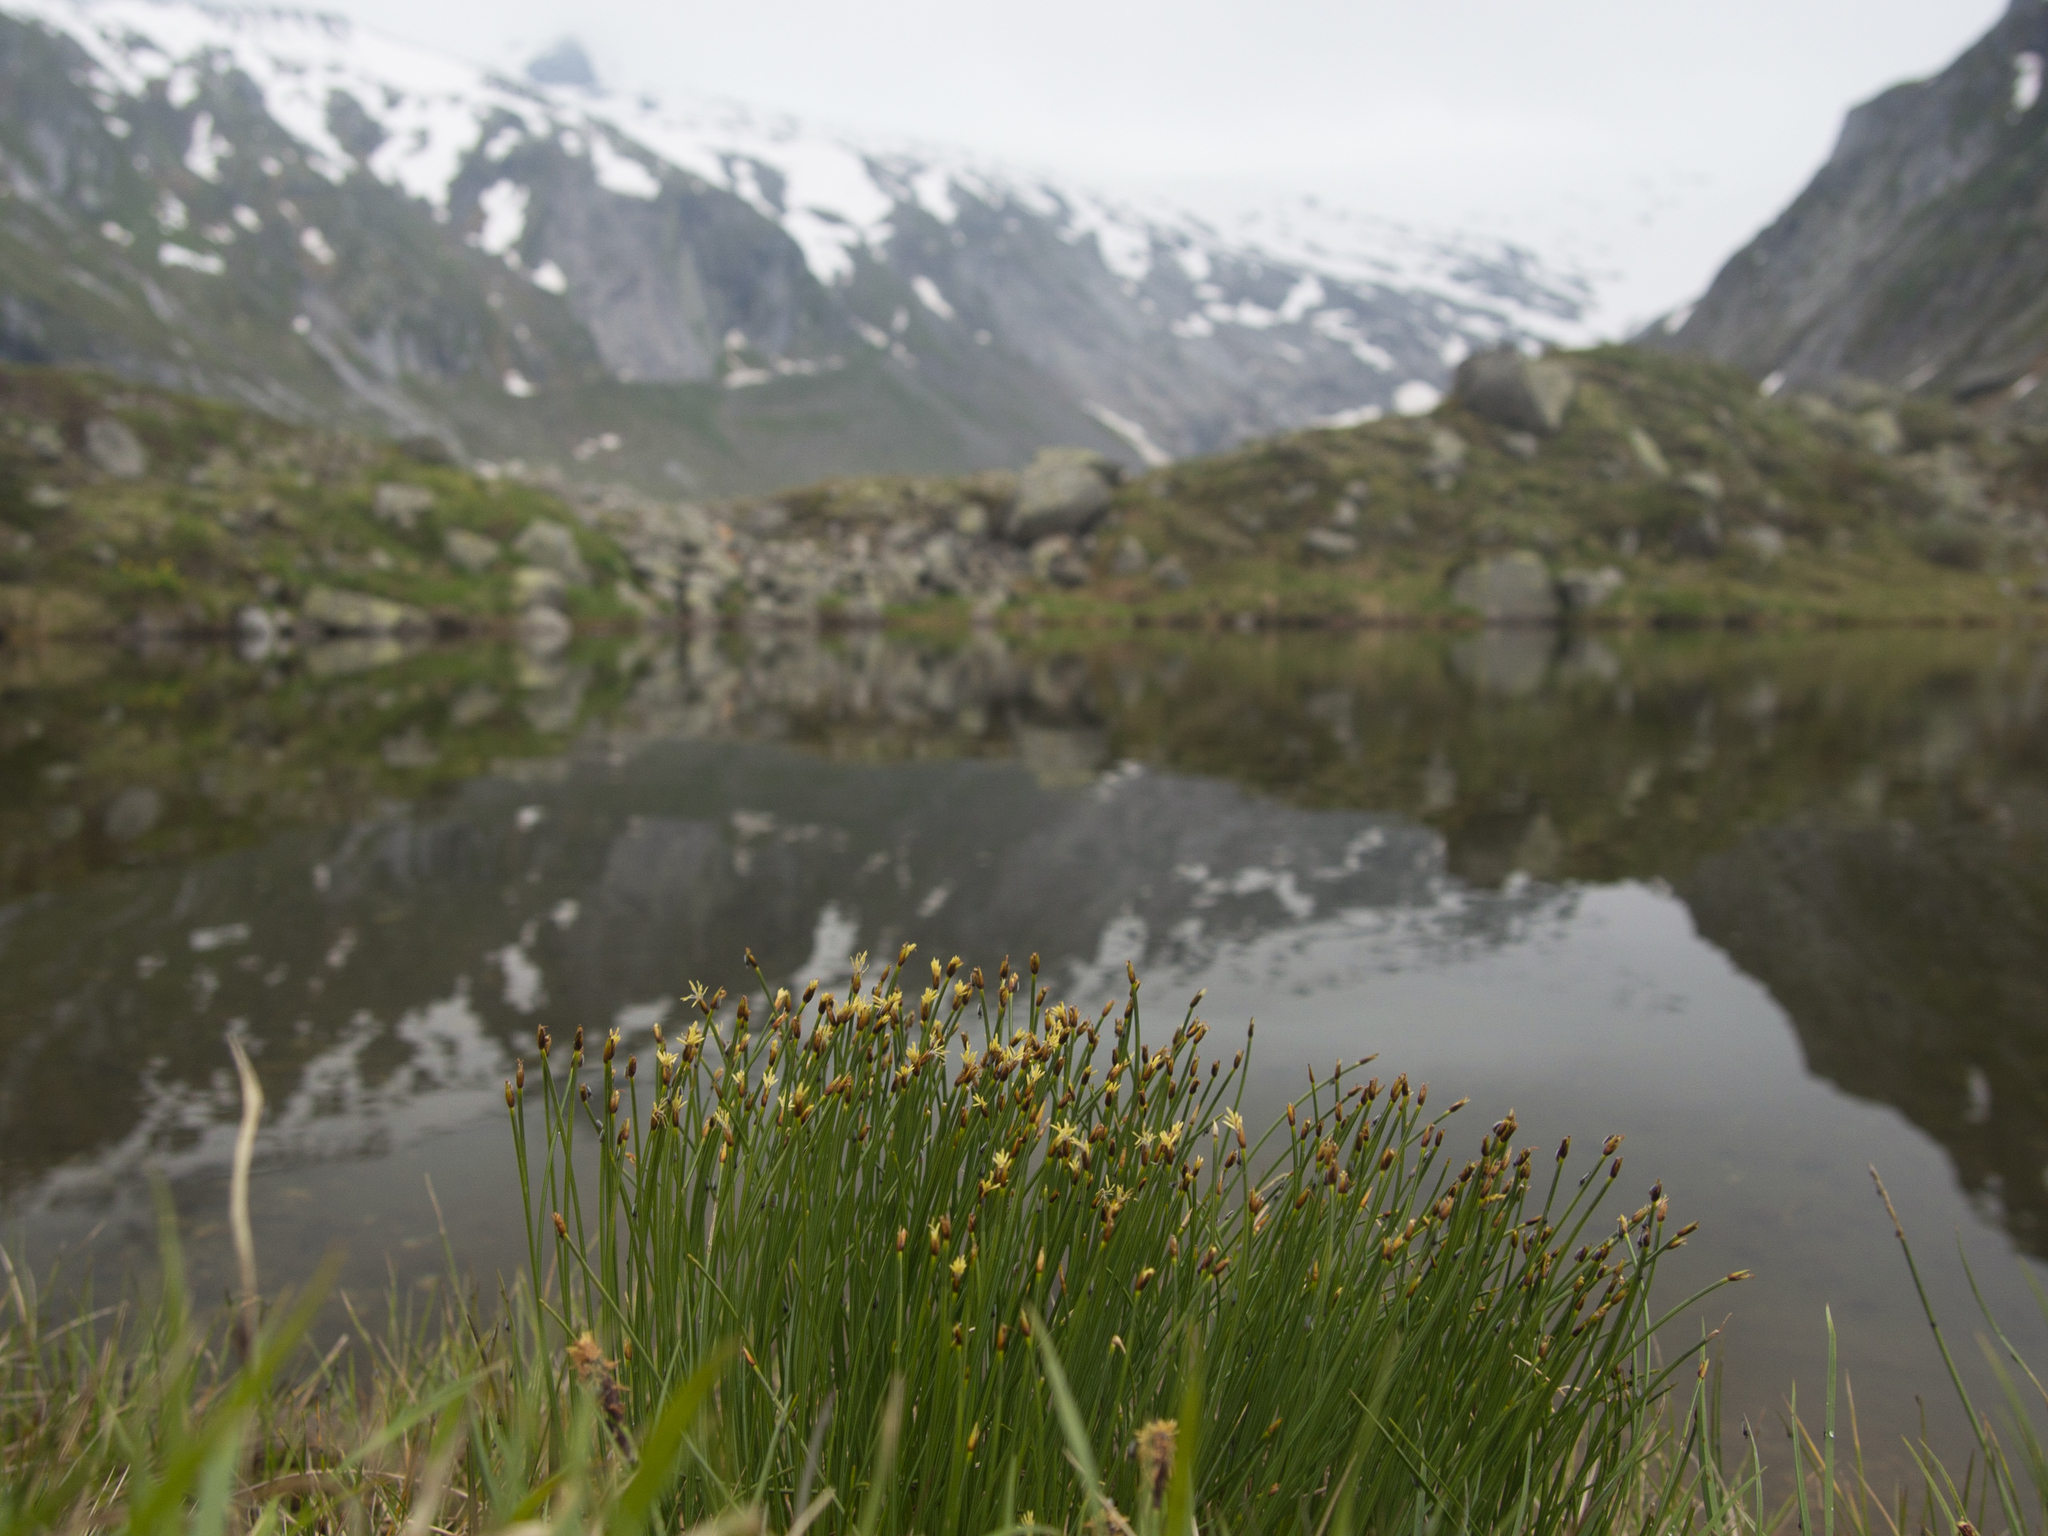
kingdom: Plantae
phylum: Tracheophyta
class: Liliopsida
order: Poales
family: Cyperaceae
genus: Trichophorum
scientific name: Trichophorum cespitosum
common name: Cespitose bulrush
